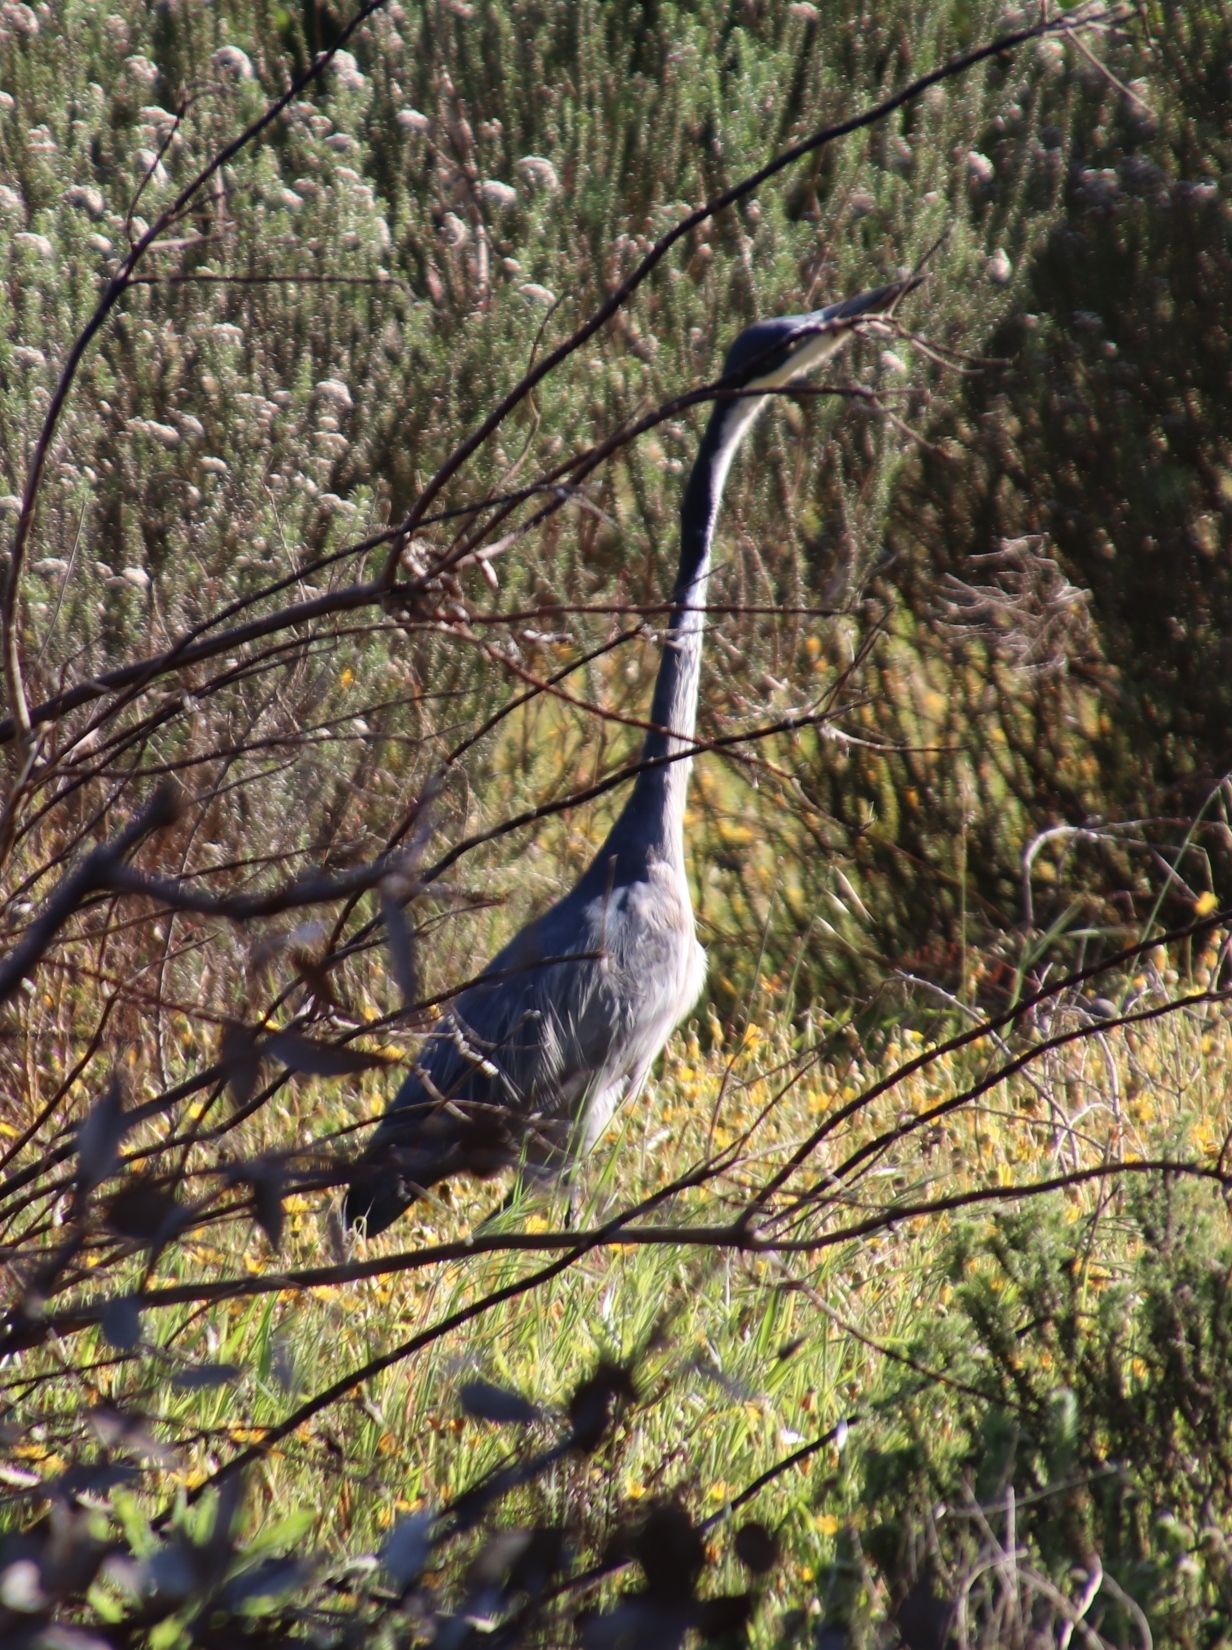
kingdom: Animalia
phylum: Chordata
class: Aves
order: Pelecaniformes
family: Ardeidae
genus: Ardea
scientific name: Ardea melanocephala
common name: Black-headed heron
